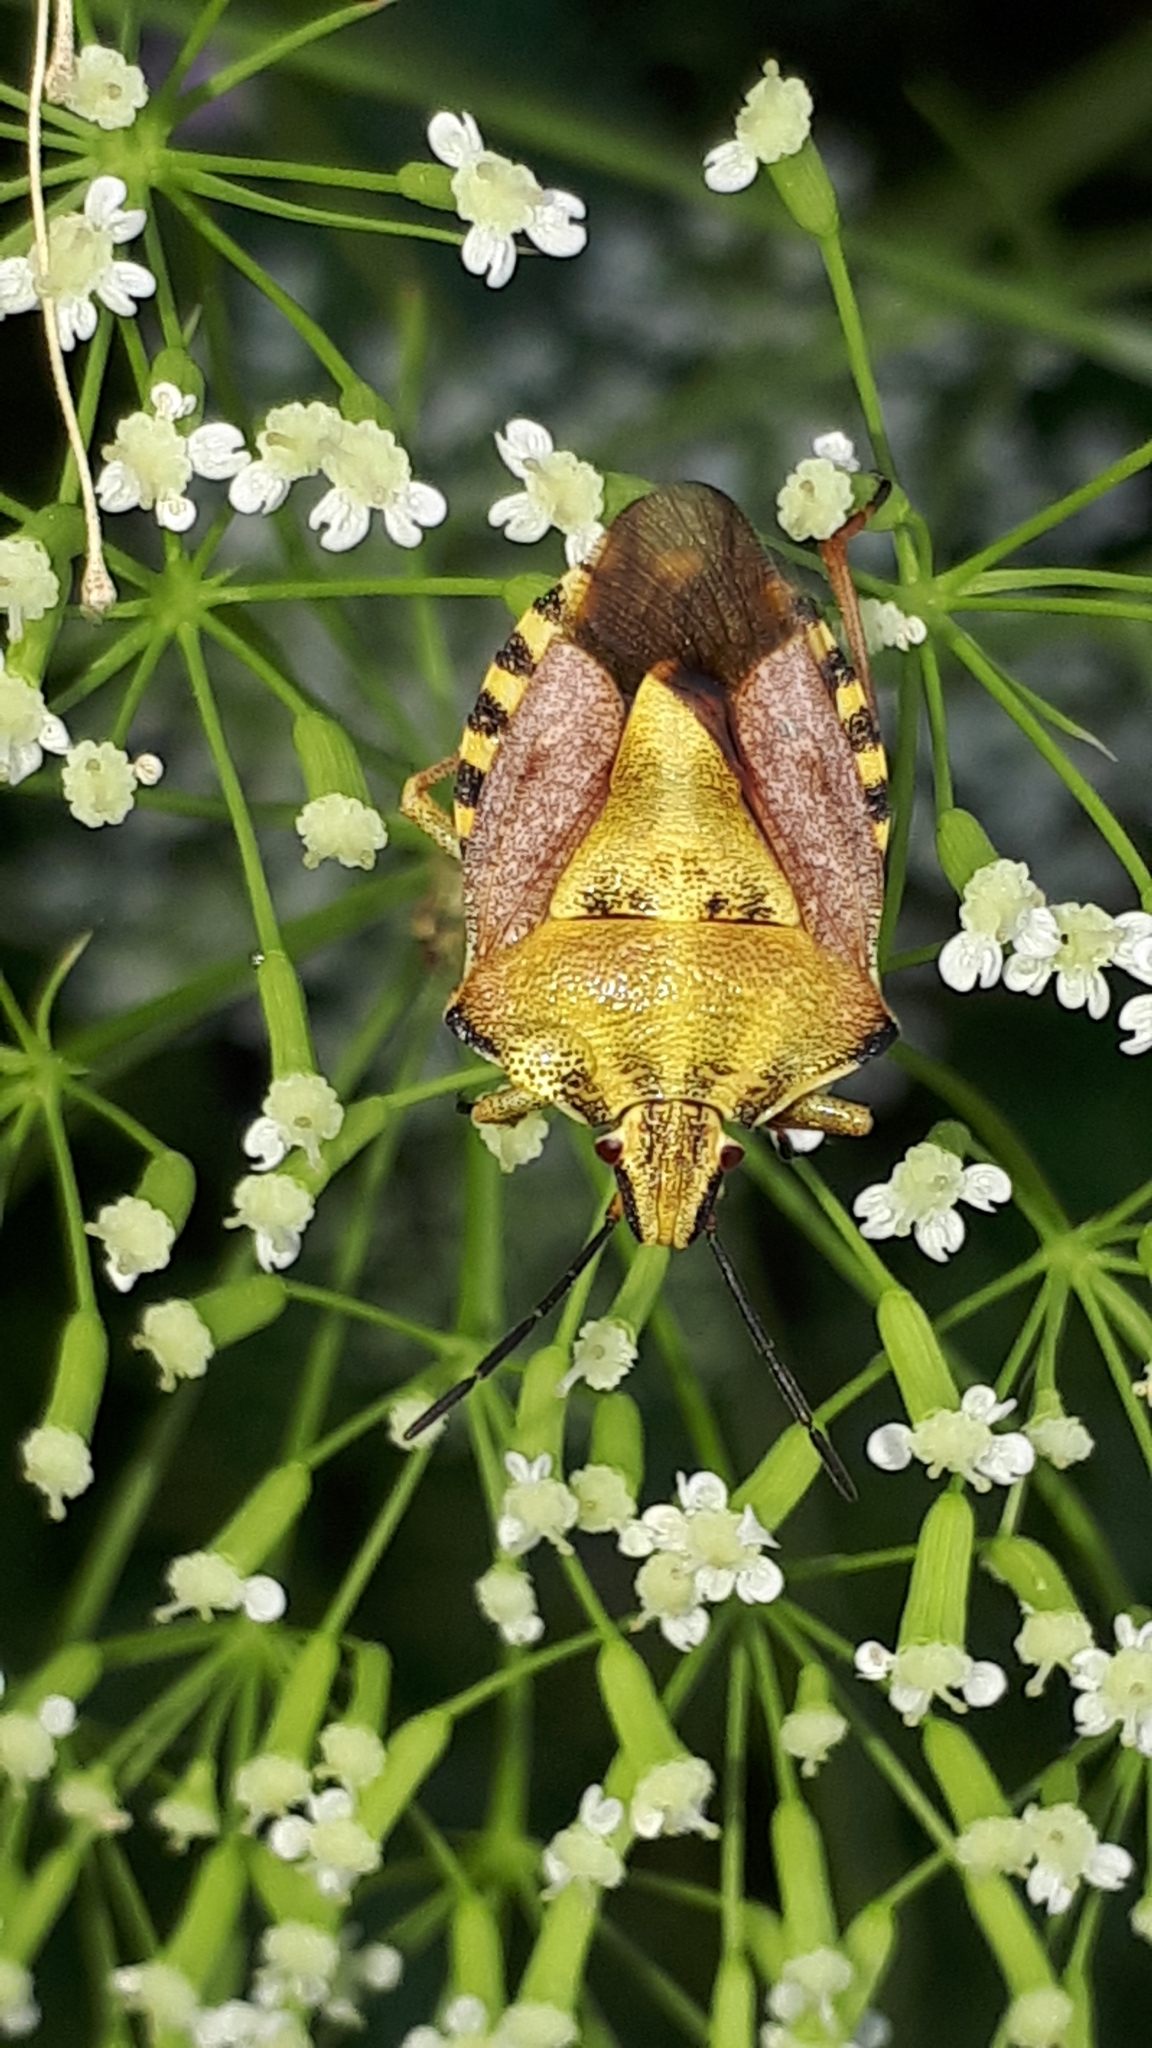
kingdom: Animalia
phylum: Arthropoda
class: Insecta
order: Hemiptera
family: Pentatomidae
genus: Carpocoris
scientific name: Carpocoris purpureipennis
